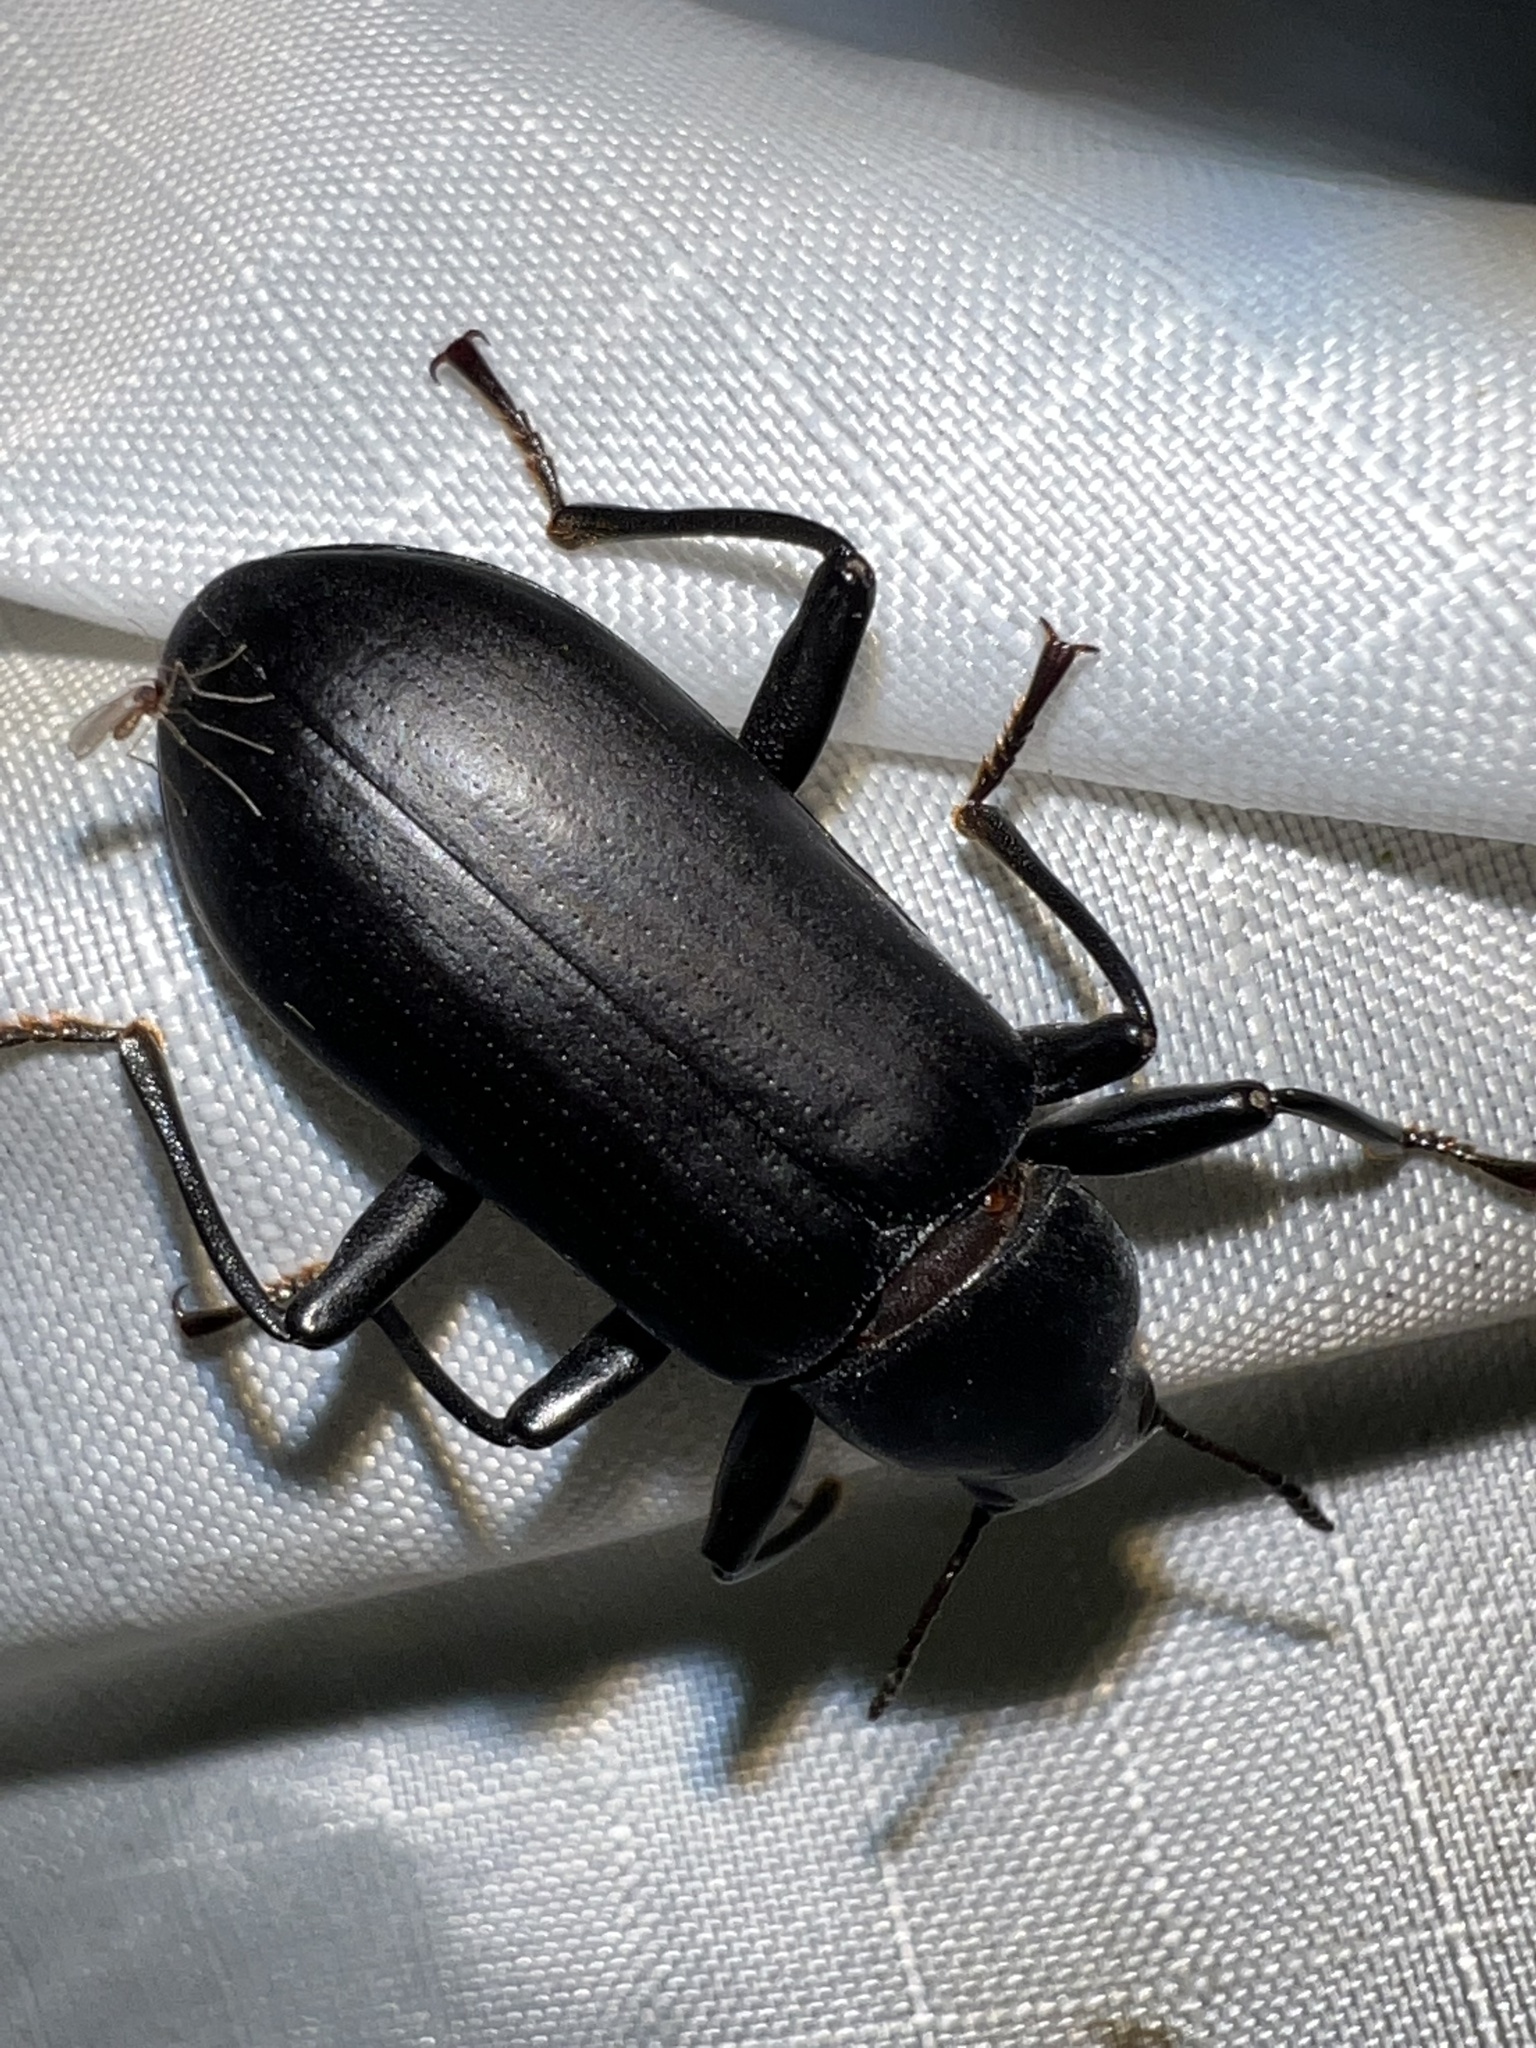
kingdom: Animalia
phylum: Arthropoda
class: Insecta
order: Coleoptera
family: Tenebrionidae
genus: Alobates
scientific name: Alobates
